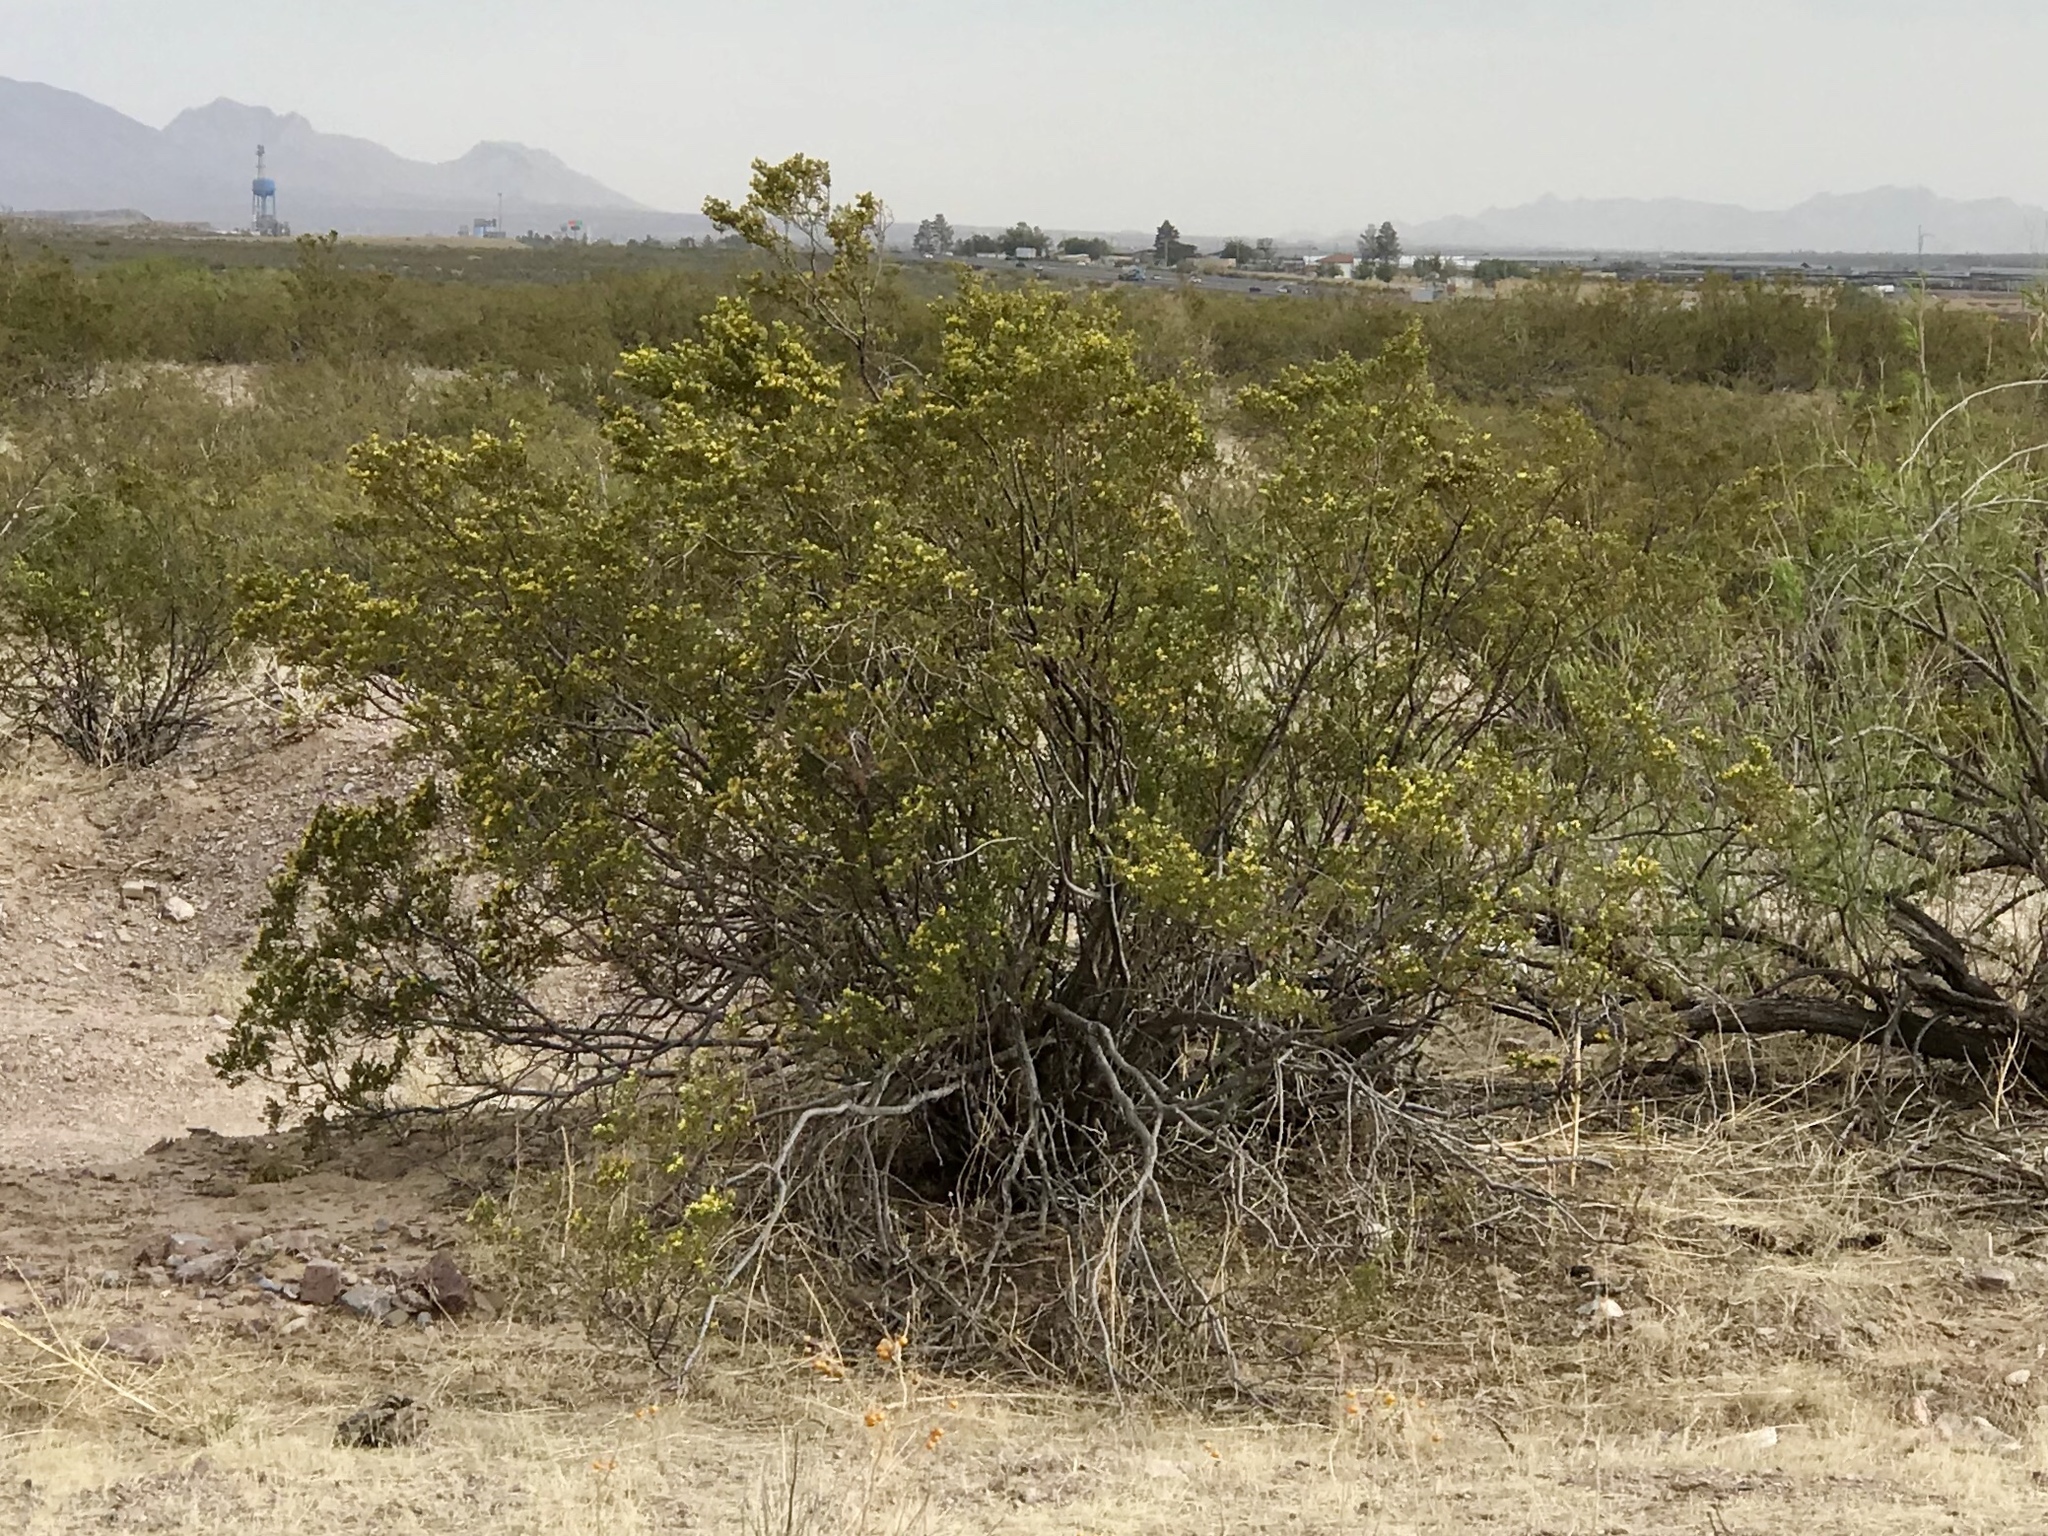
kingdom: Plantae
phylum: Tracheophyta
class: Magnoliopsida
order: Zygophyllales
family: Zygophyllaceae
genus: Larrea
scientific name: Larrea tridentata
